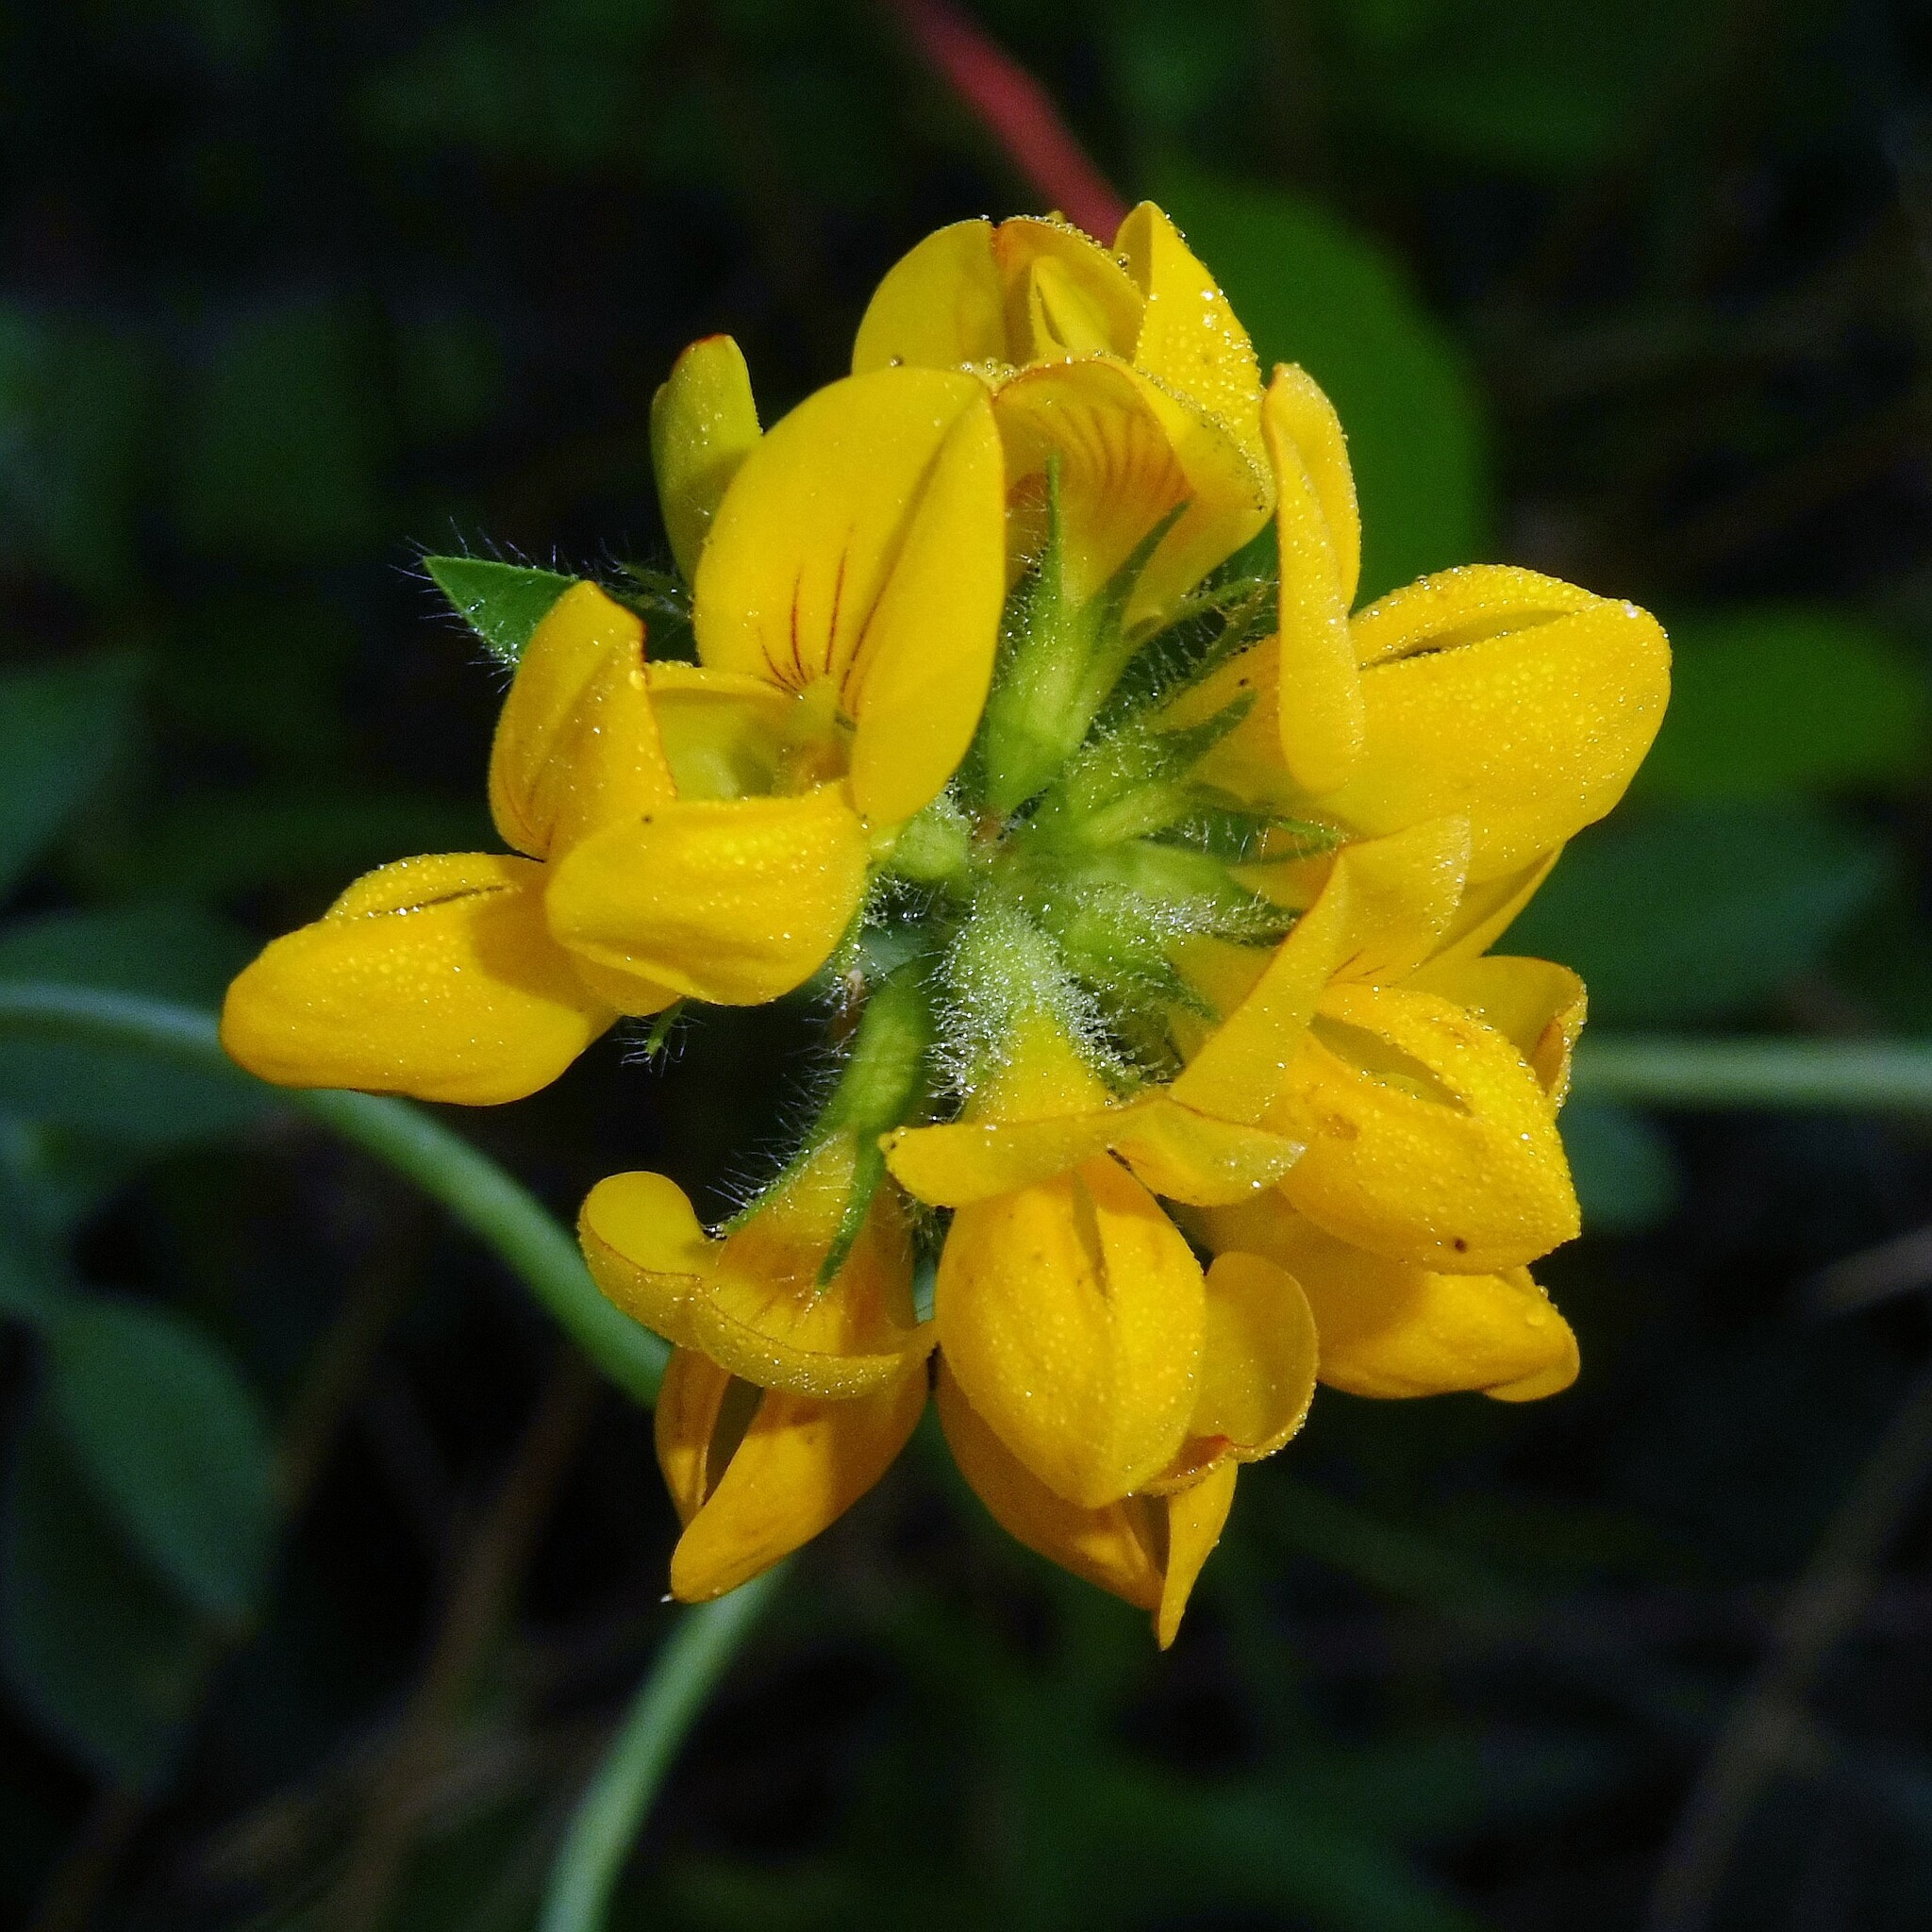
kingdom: Plantae
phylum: Tracheophyta
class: Magnoliopsida
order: Fabales
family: Fabaceae
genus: Lotus
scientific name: Lotus pedunculatus
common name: Greater birdsfoot-trefoil
